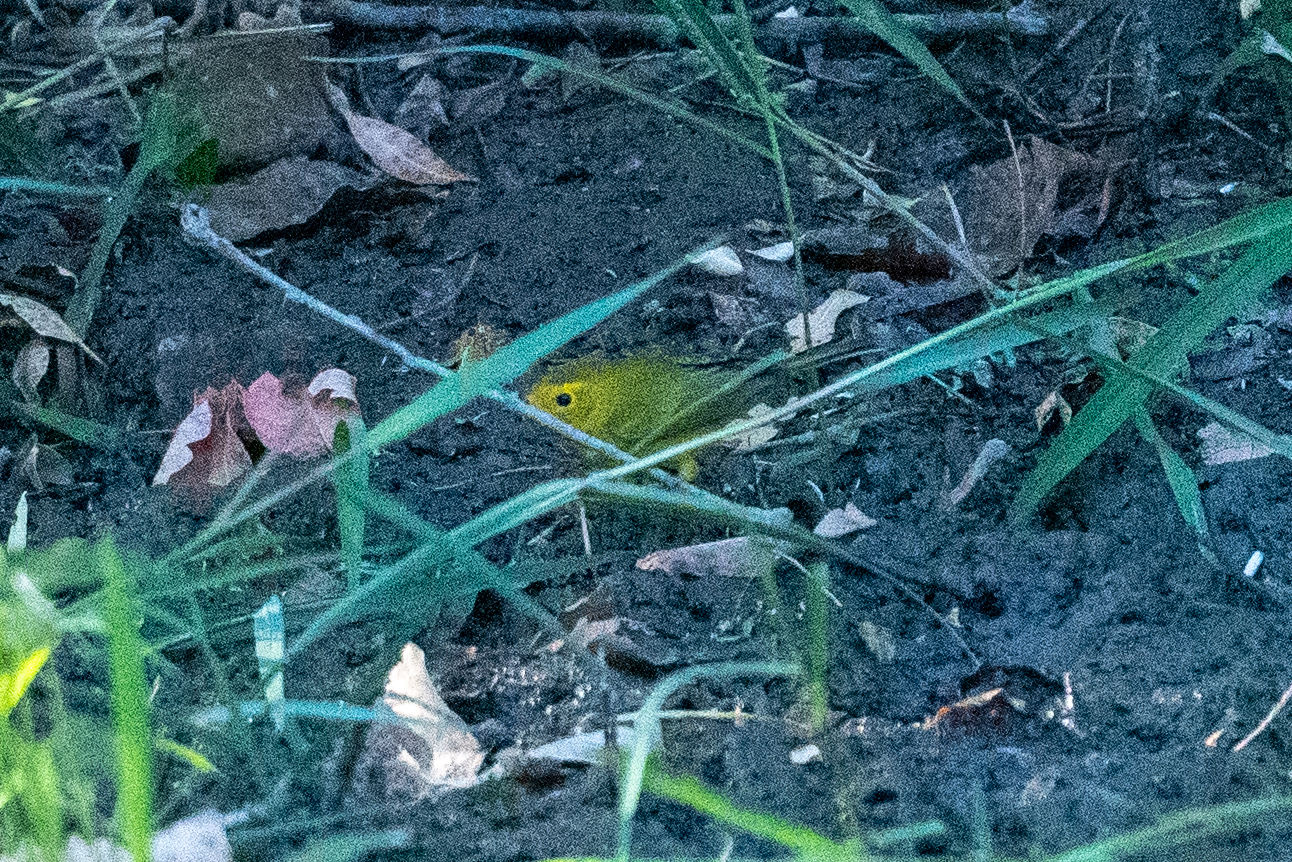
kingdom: Animalia
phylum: Chordata
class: Aves
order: Passeriformes
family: Parulidae
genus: Cardellina
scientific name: Cardellina pusilla
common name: Wilson's warbler
